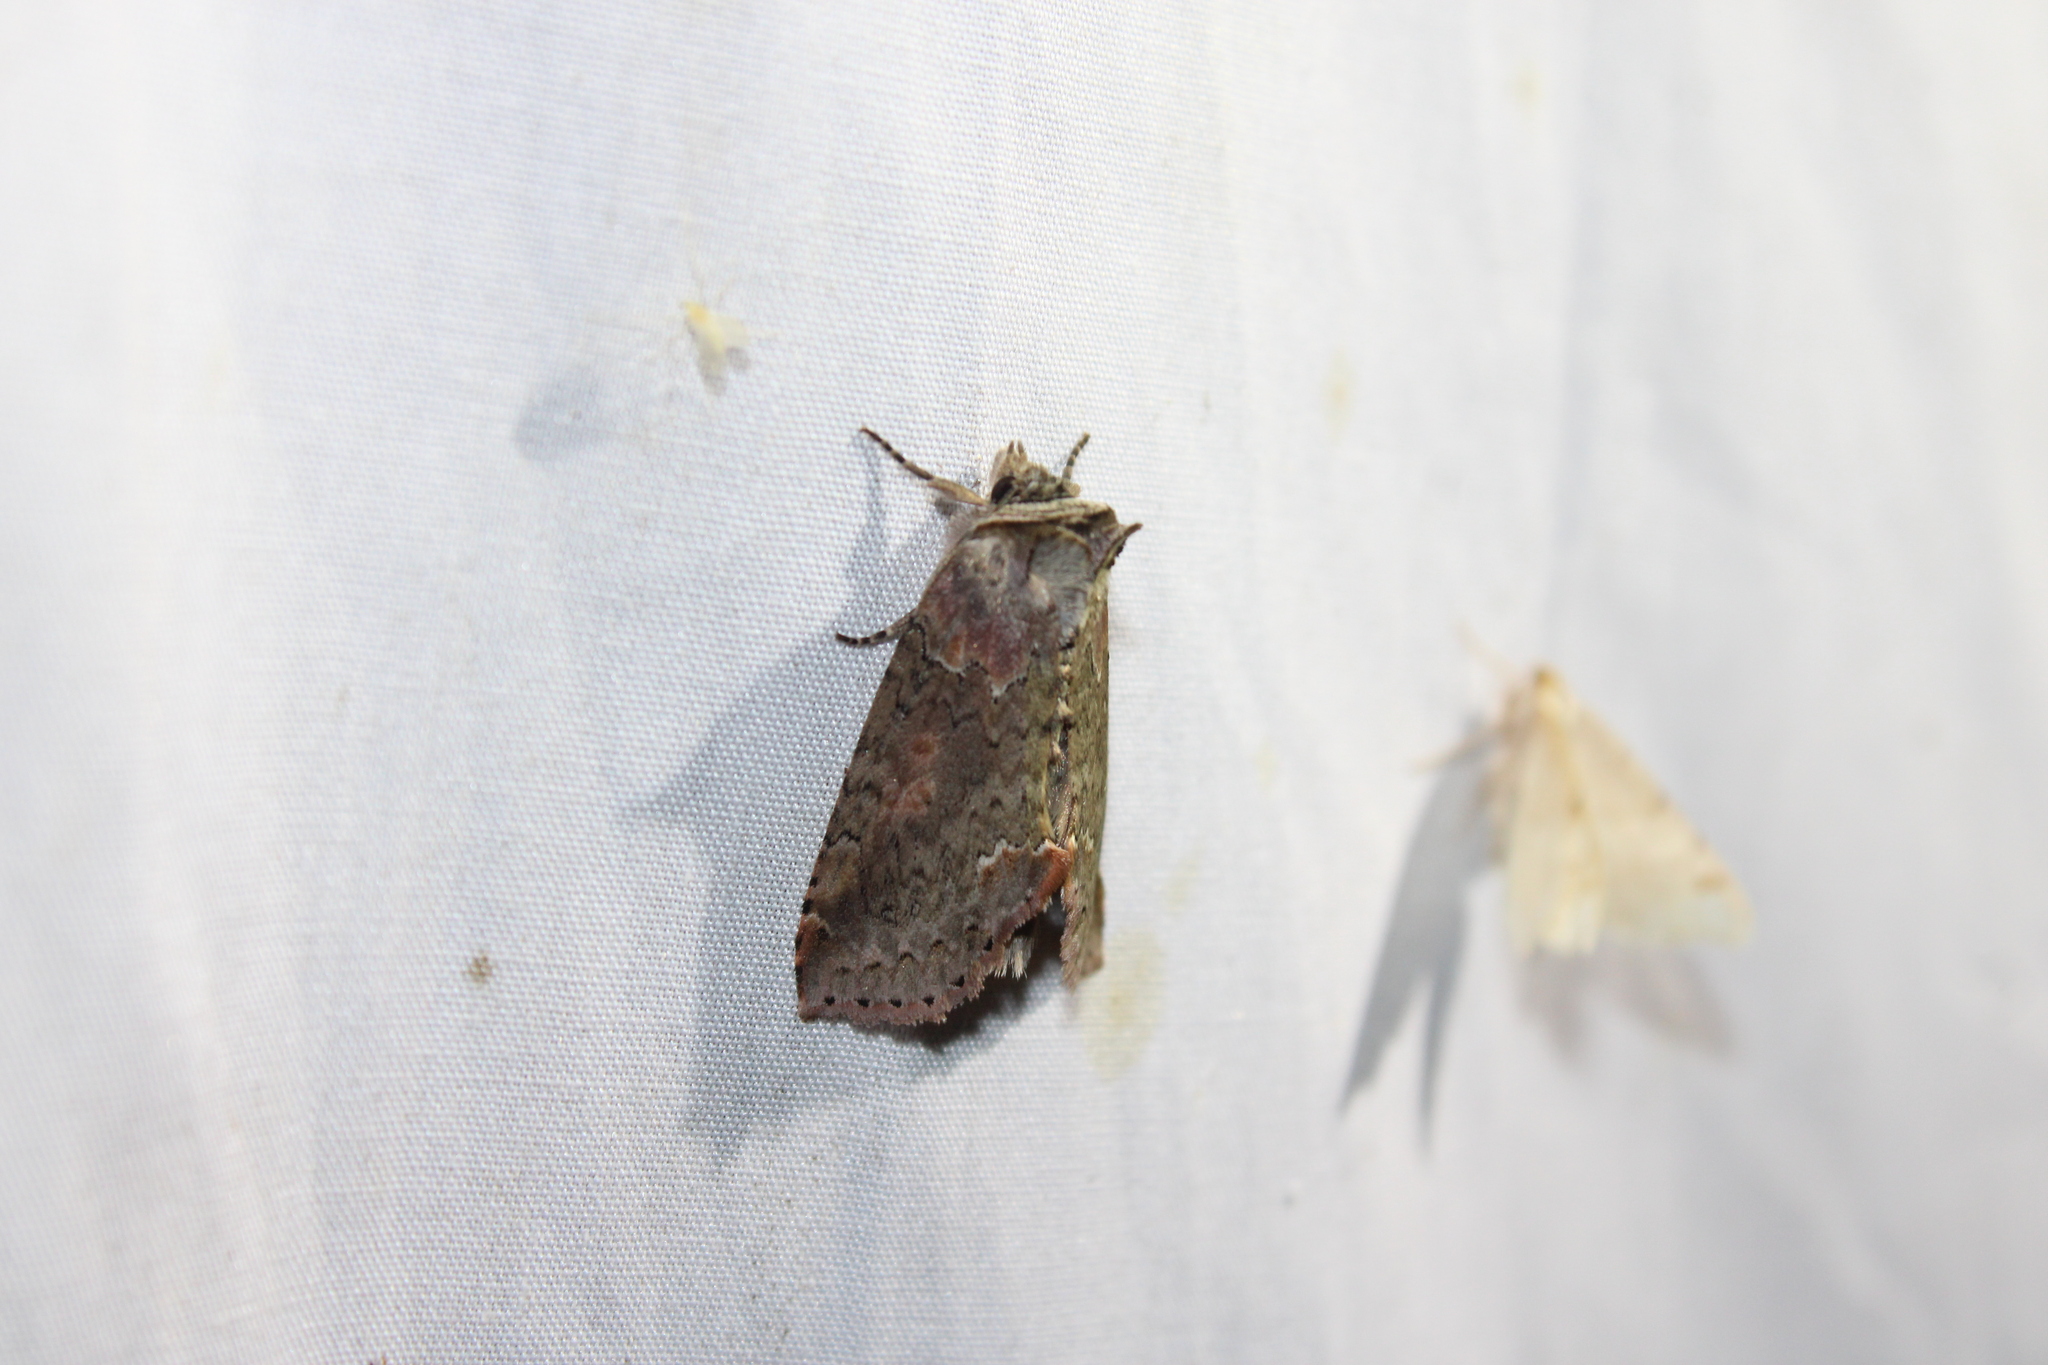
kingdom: Animalia
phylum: Arthropoda
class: Insecta
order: Lepidoptera
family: Drepanidae
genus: Pseudothyatira
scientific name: Pseudothyatira cymatophoroides
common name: Tufted thyatirid moth
